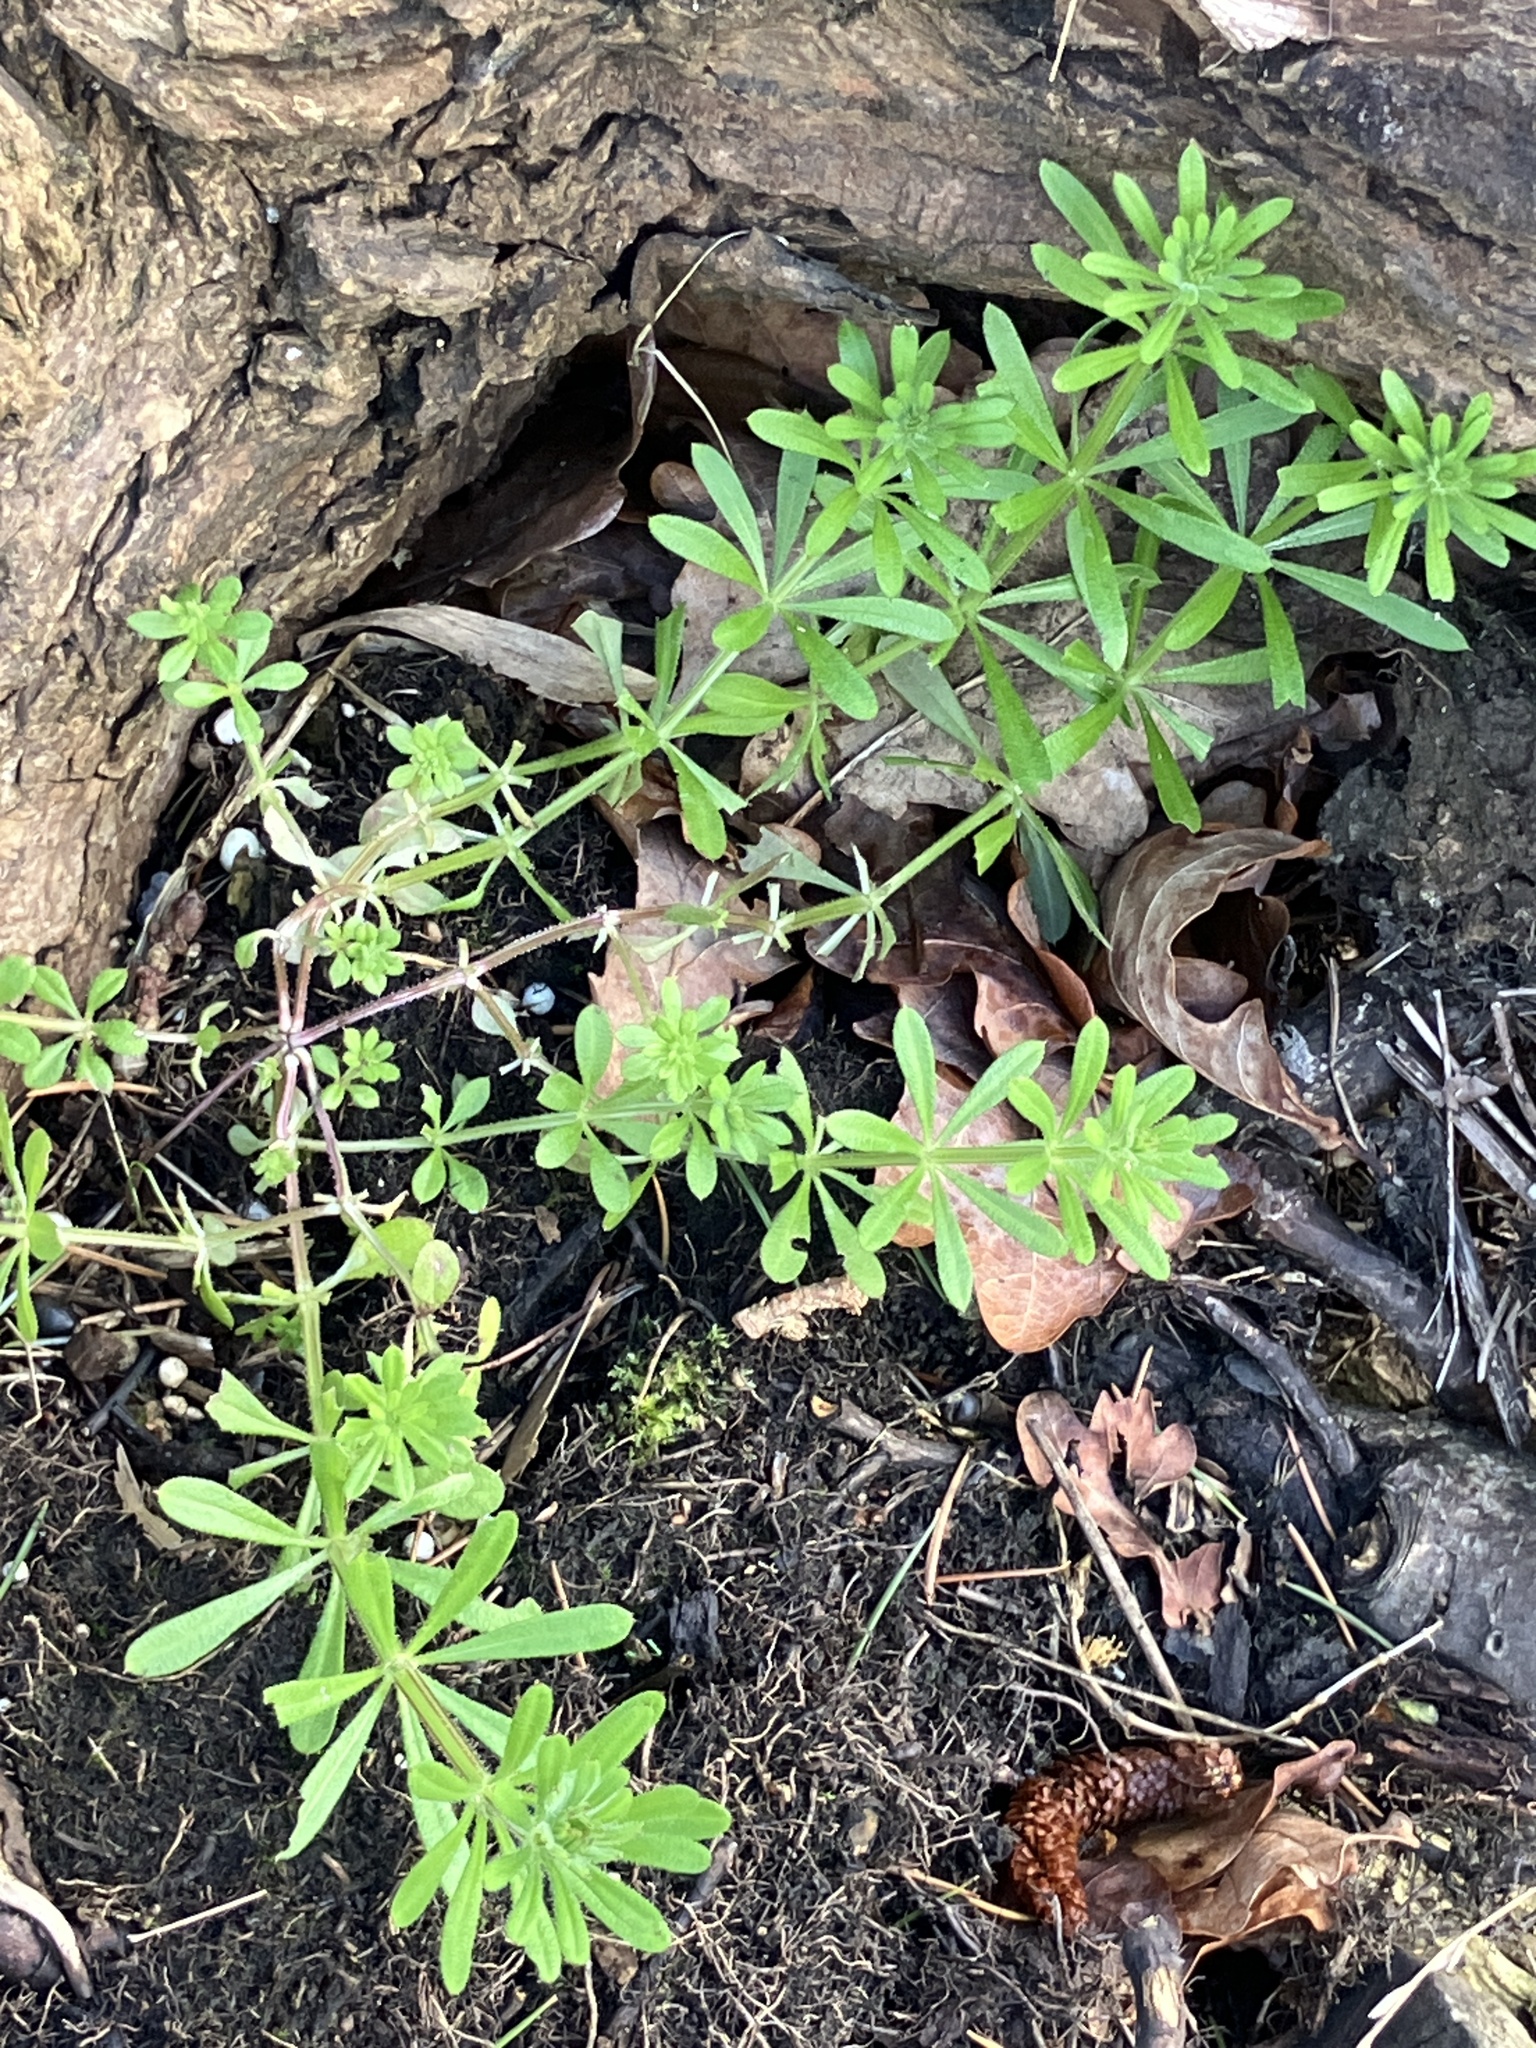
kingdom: Plantae
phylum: Tracheophyta
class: Magnoliopsida
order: Gentianales
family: Rubiaceae
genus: Galium
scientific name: Galium aparine
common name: Cleavers
